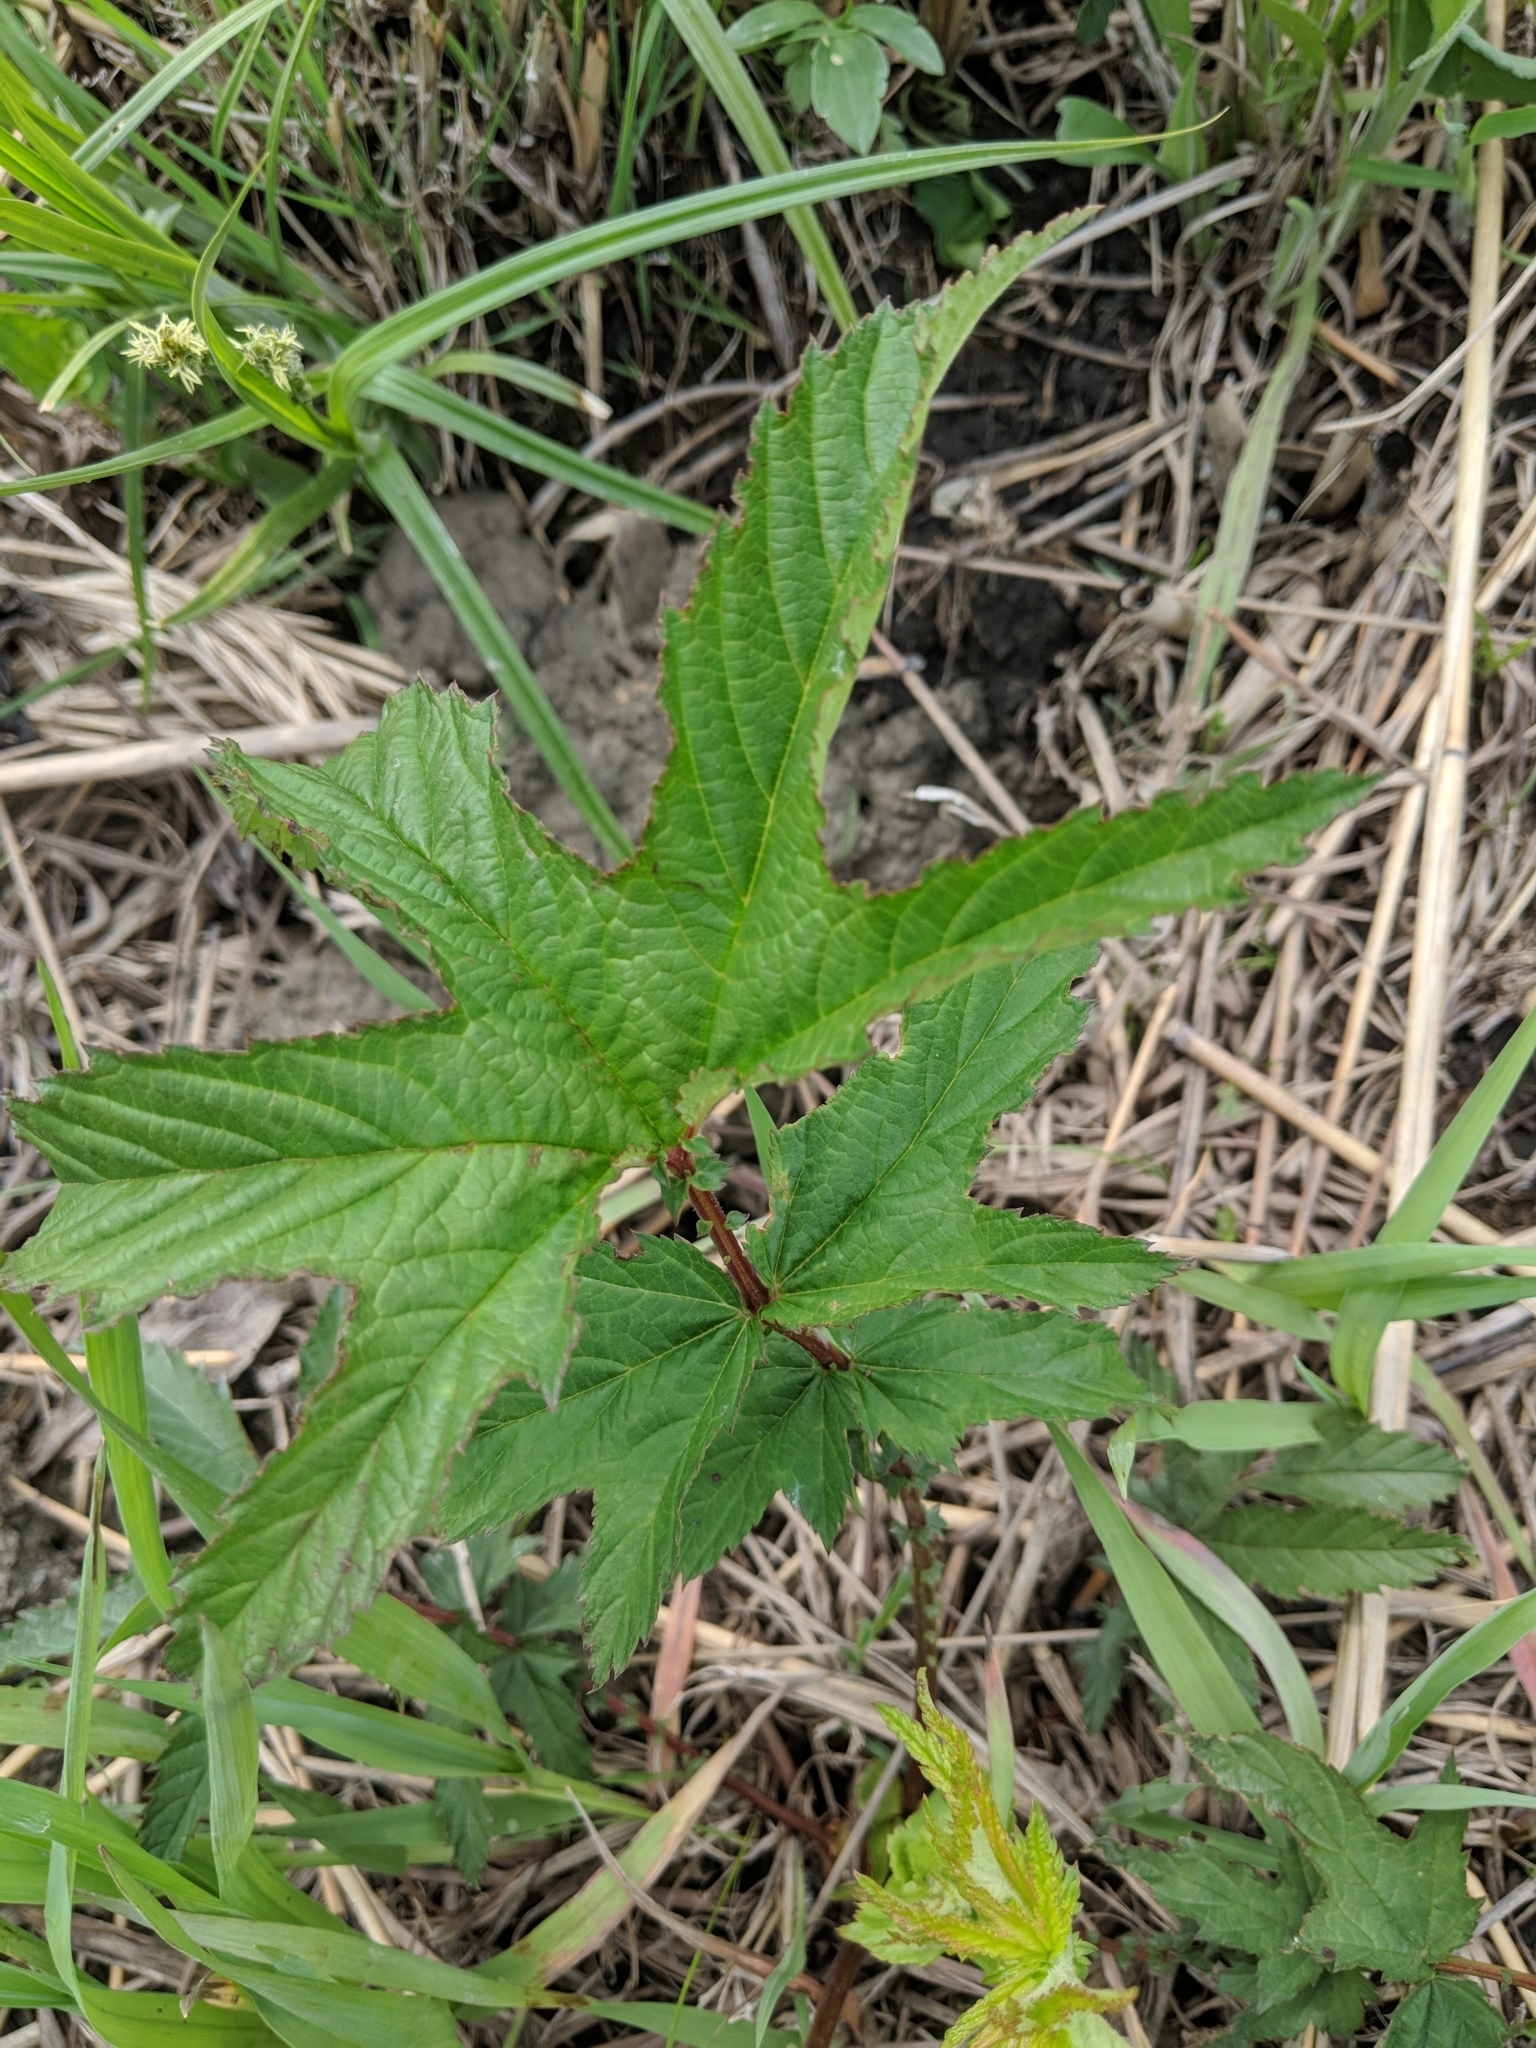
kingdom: Plantae
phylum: Tracheophyta
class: Magnoliopsida
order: Rosales
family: Rosaceae
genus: Filipendula
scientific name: Filipendula rubra
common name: Queen-of-the-prairie
